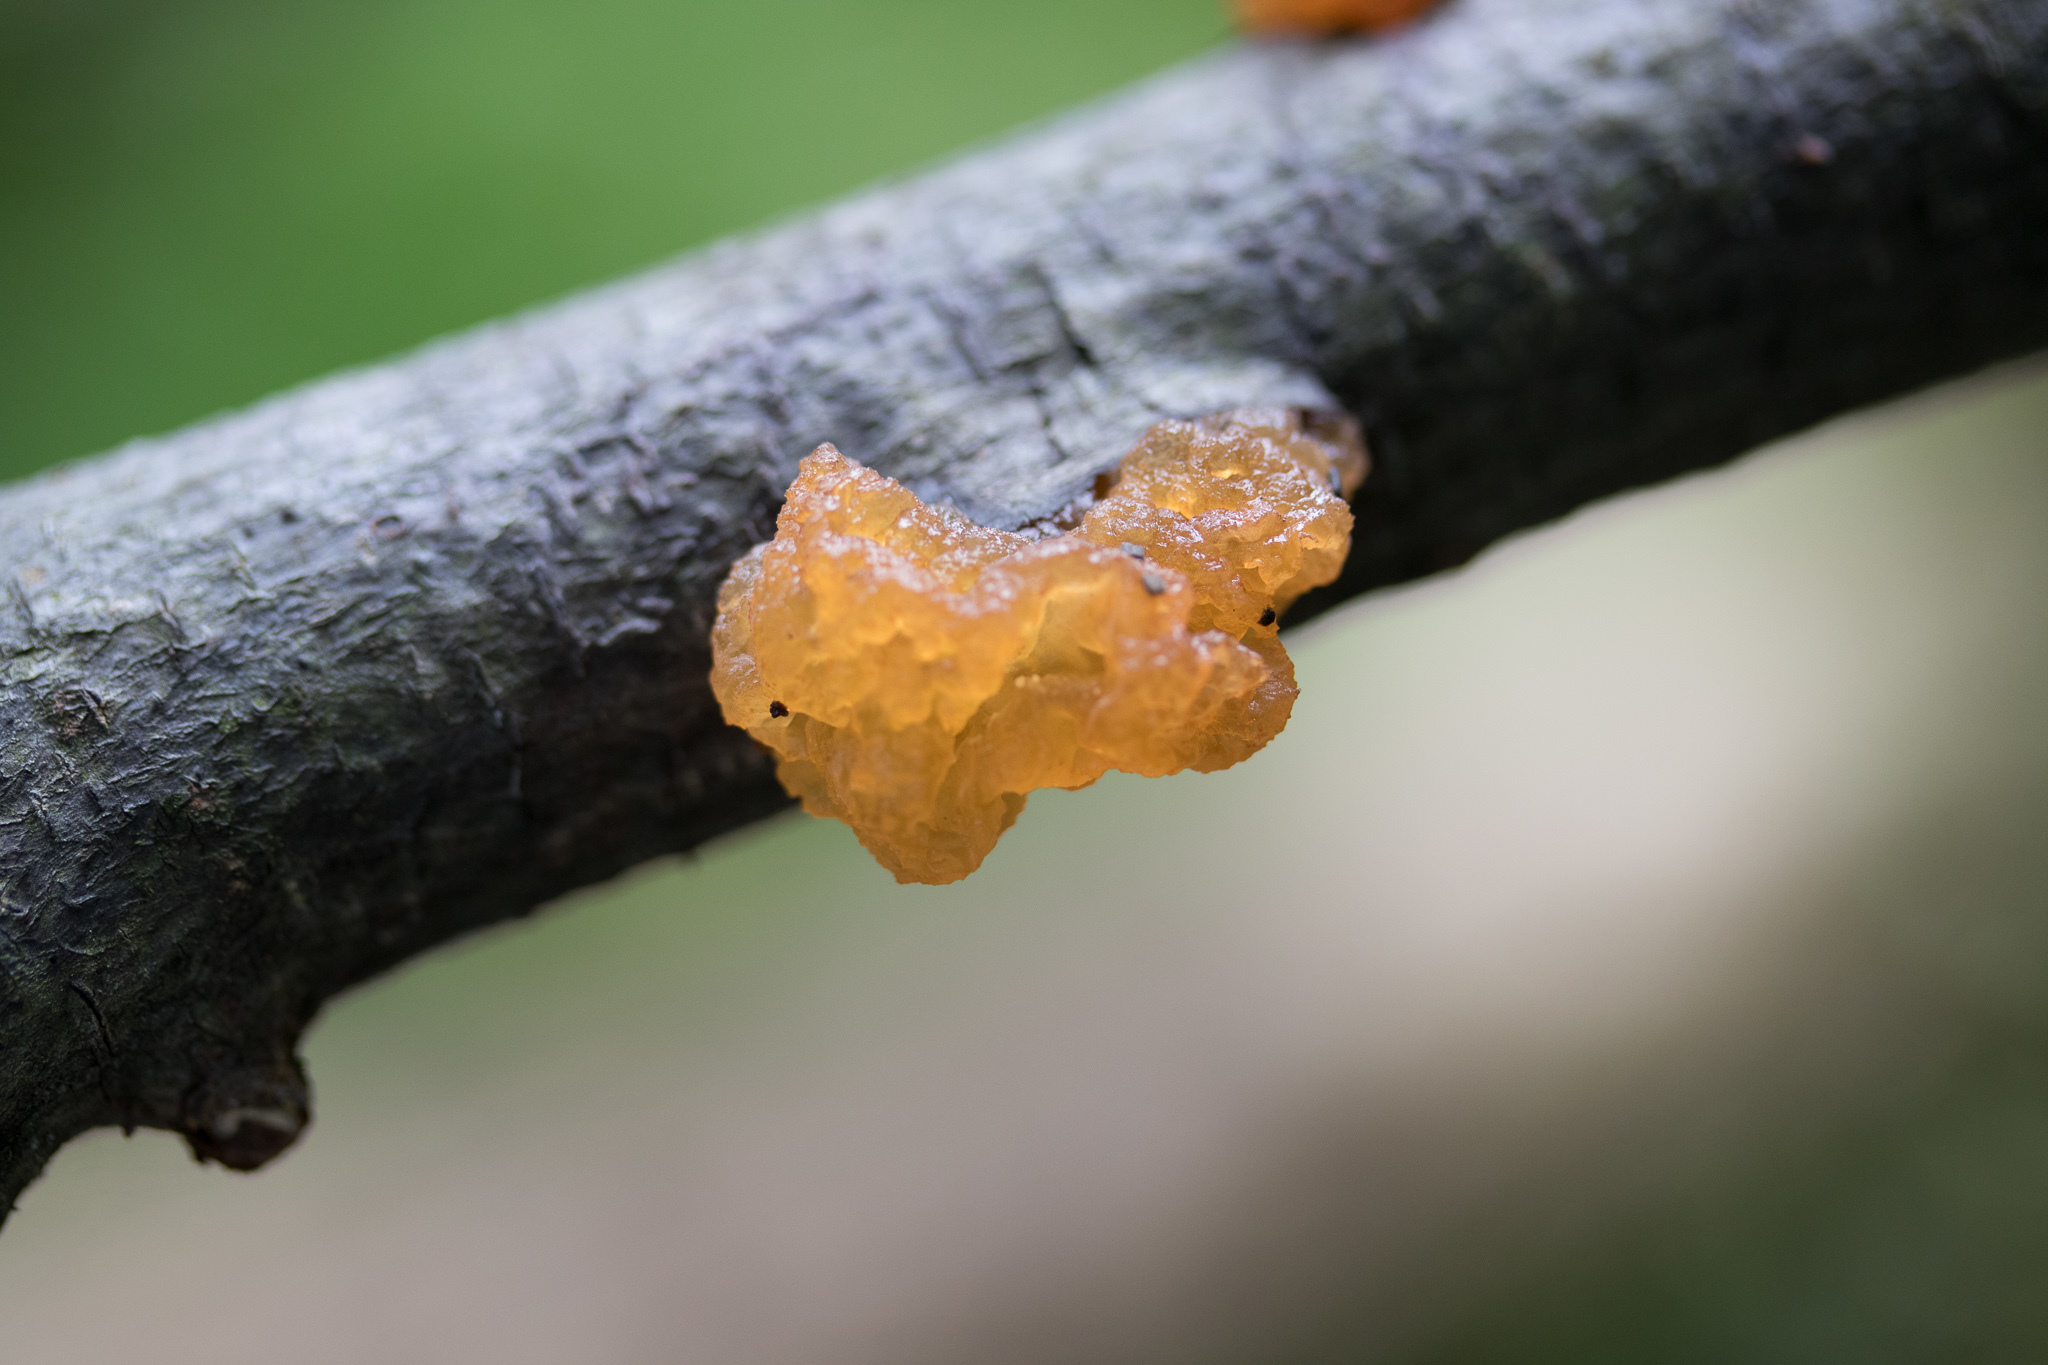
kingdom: Fungi
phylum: Basidiomycota
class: Tremellomycetes
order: Tremellales
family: Tremellaceae
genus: Tremella
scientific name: Tremella mesenterica
